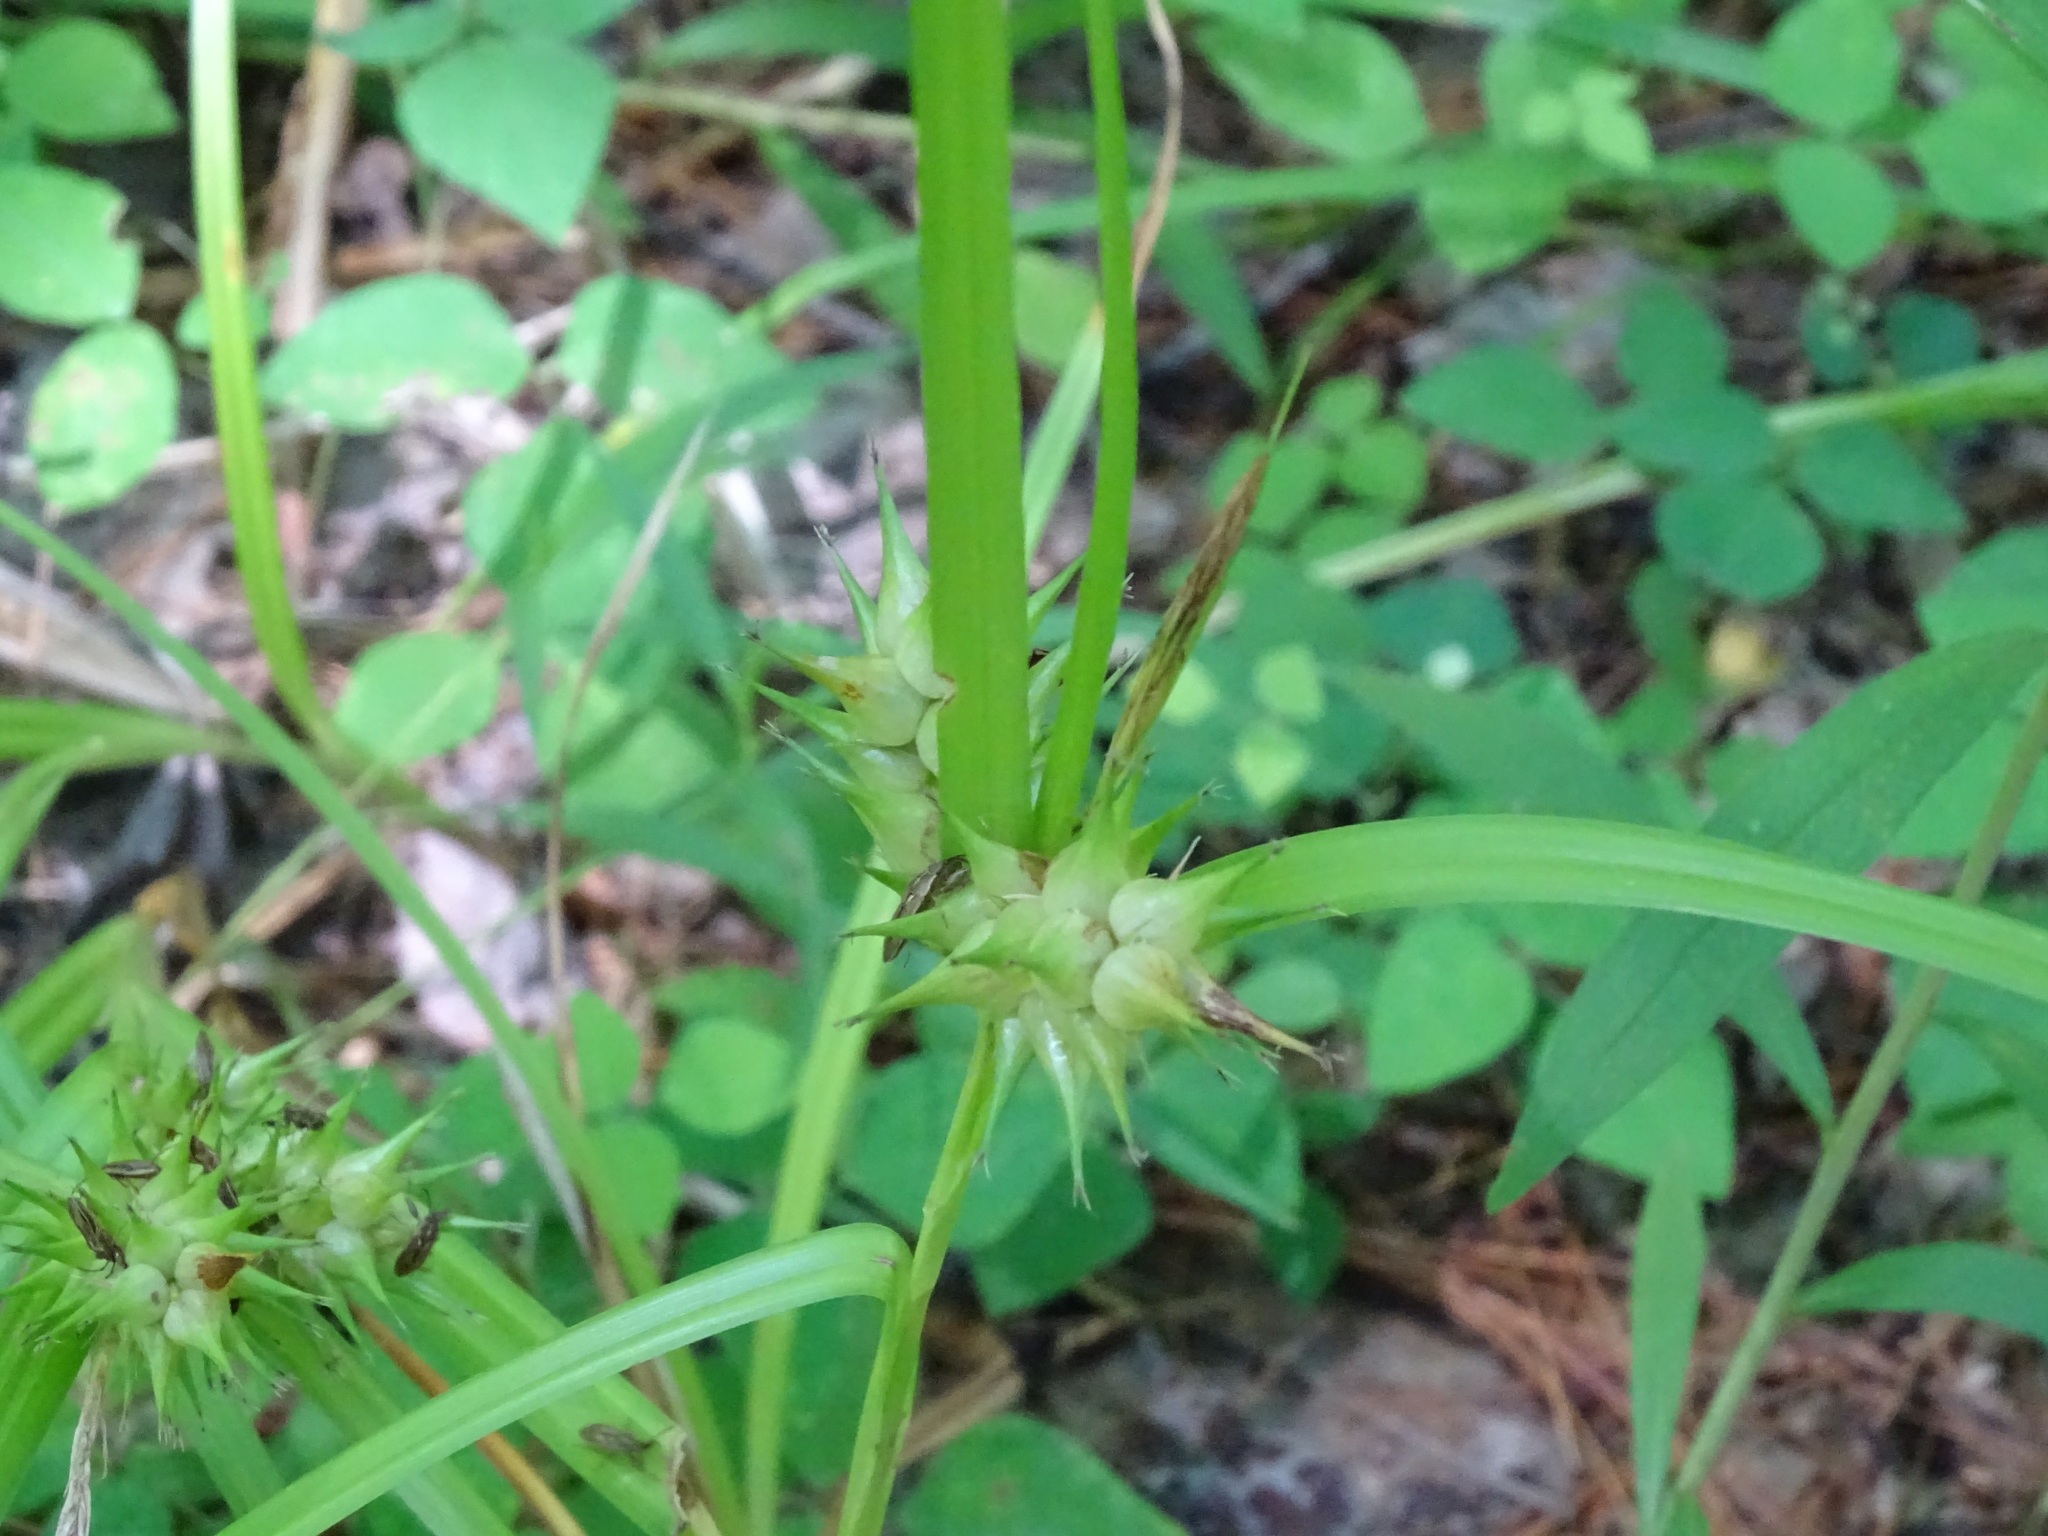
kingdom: Plantae
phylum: Tracheophyta
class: Liliopsida
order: Poales
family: Cyperaceae
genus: Carex
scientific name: Carex lupulina
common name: Hop sedge
